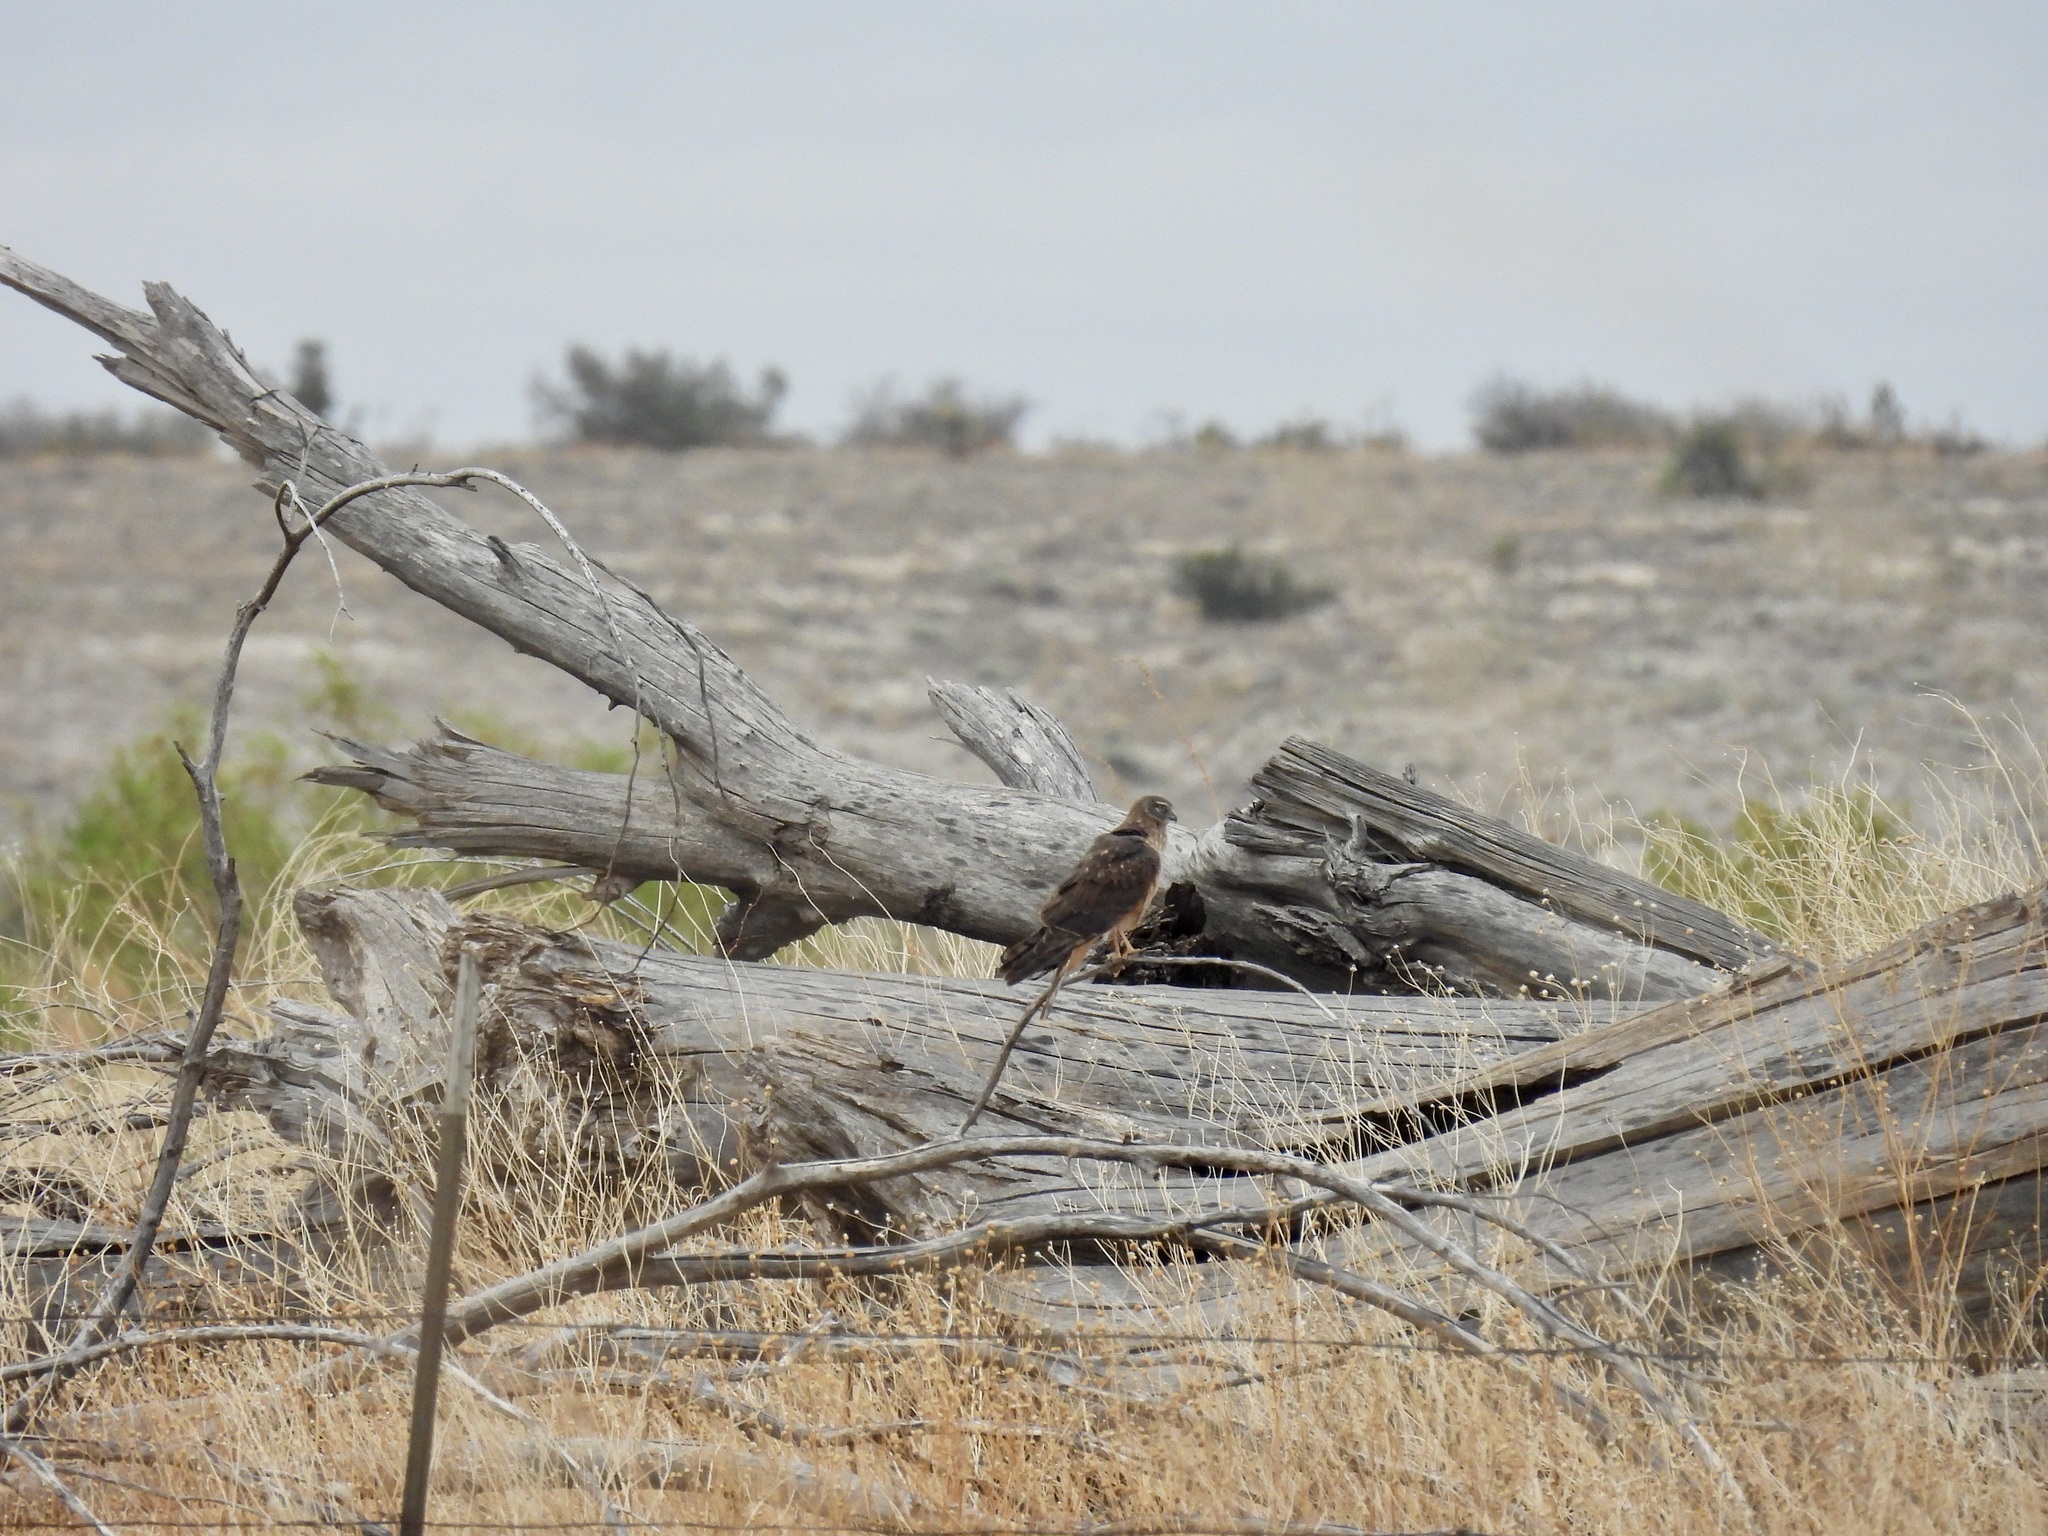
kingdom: Animalia
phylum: Chordata
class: Aves
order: Accipitriformes
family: Accipitridae
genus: Circus
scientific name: Circus cyaneus
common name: Hen harrier
